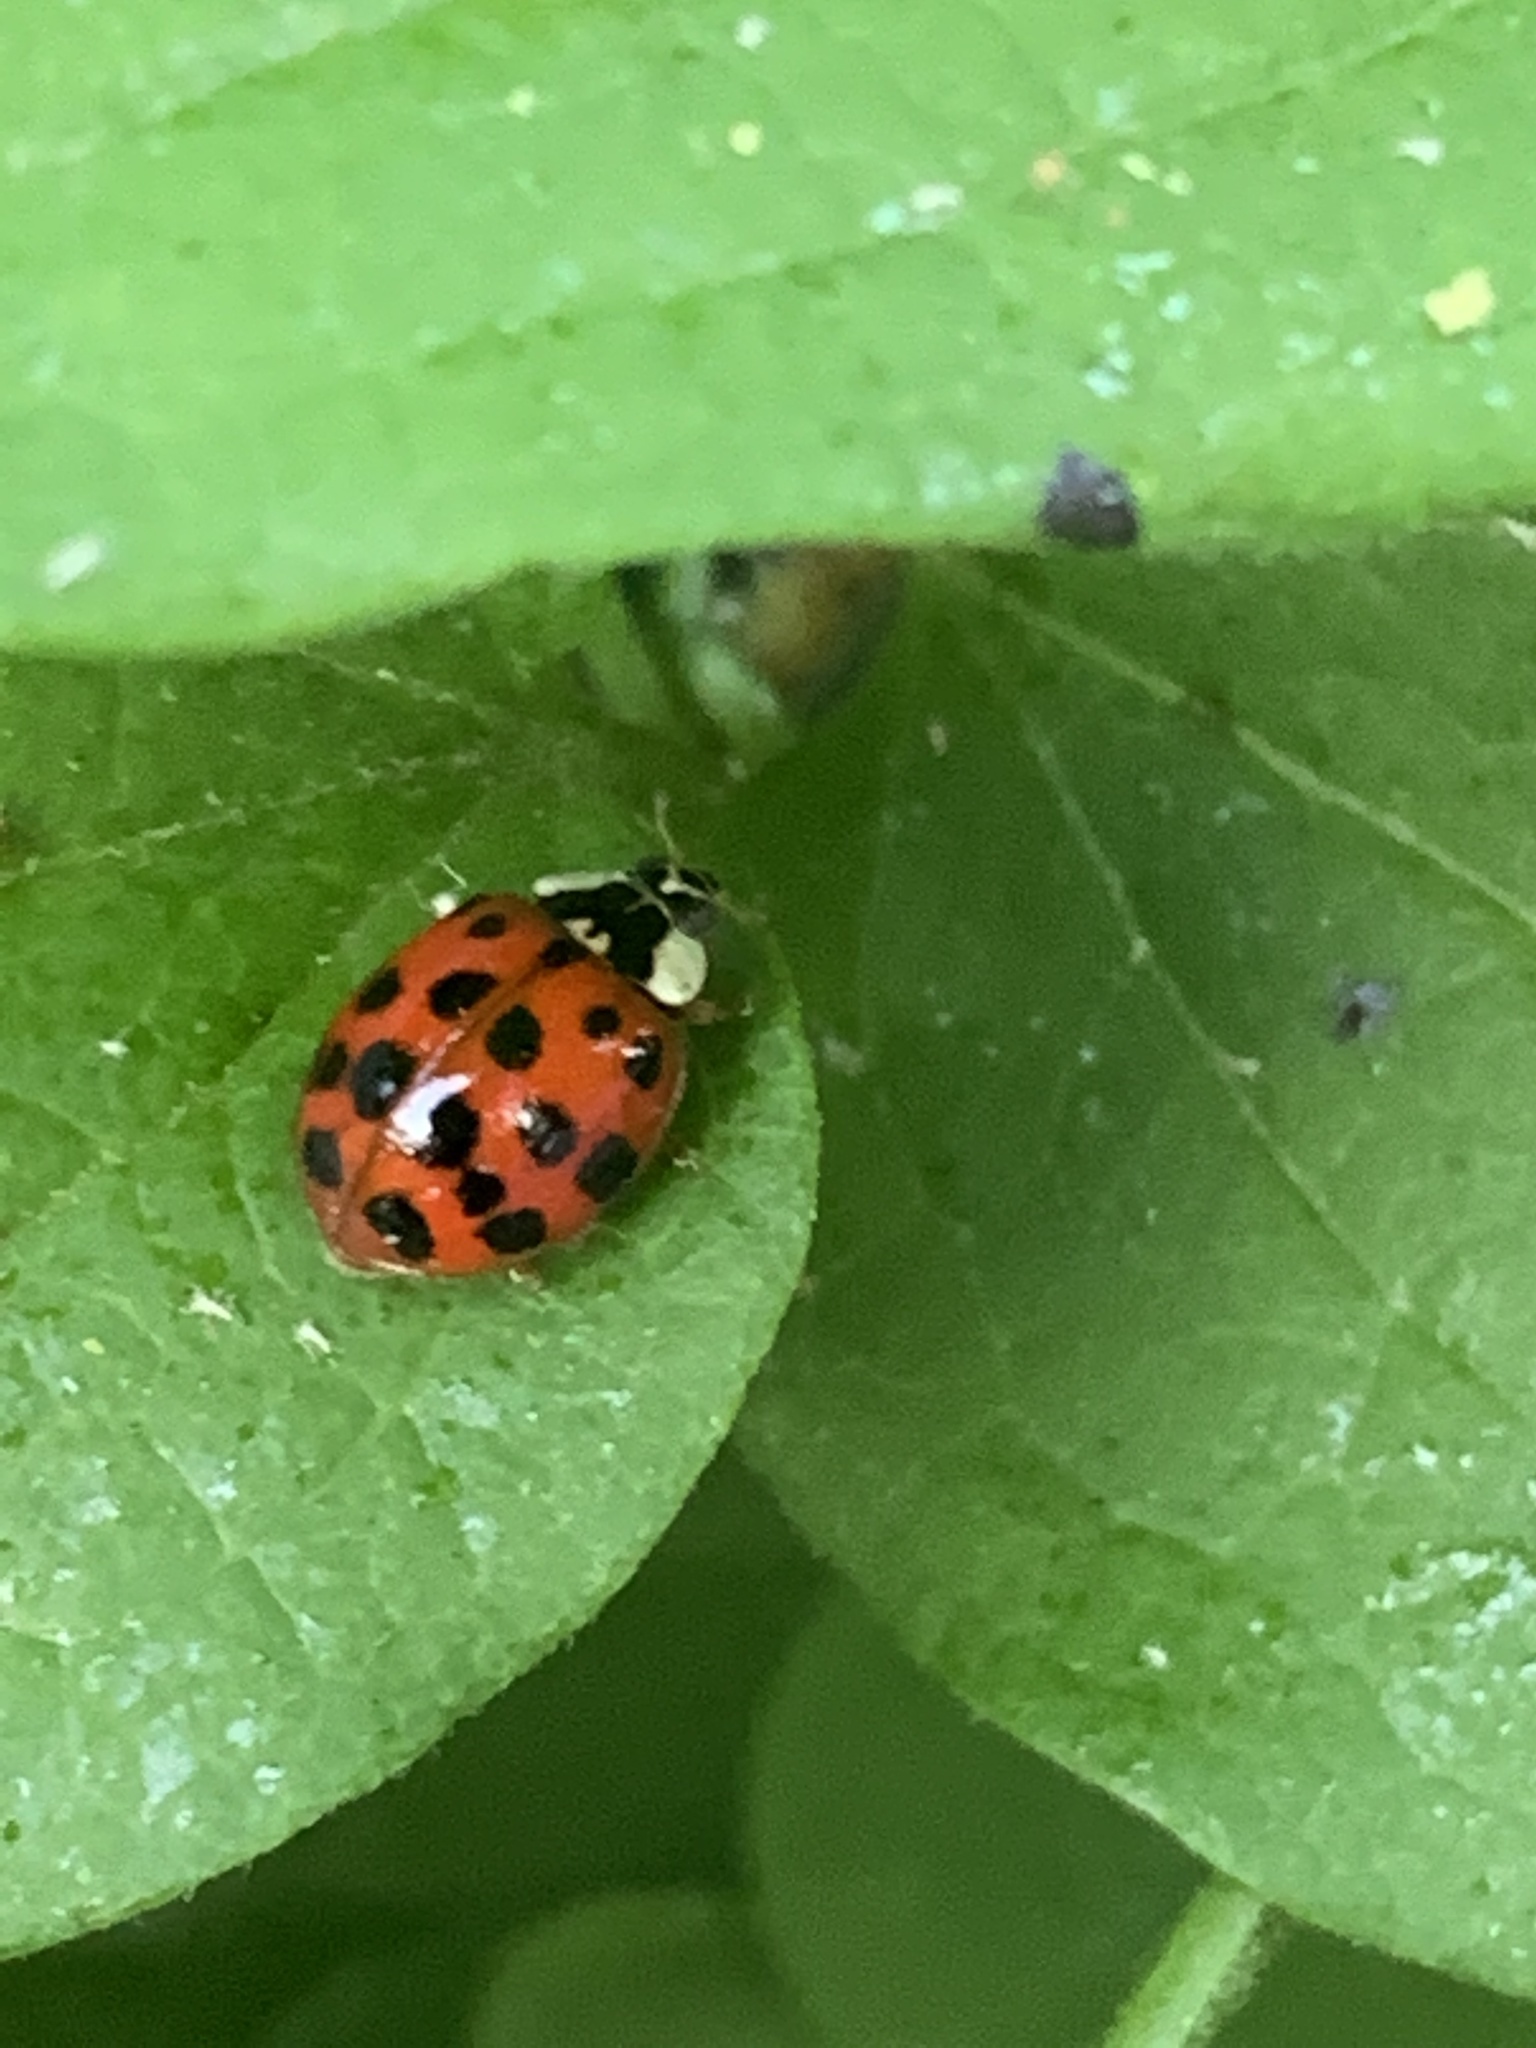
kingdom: Animalia
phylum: Arthropoda
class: Insecta
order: Coleoptera
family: Coccinellidae
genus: Harmonia
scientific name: Harmonia axyridis
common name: Harlequin ladybird
